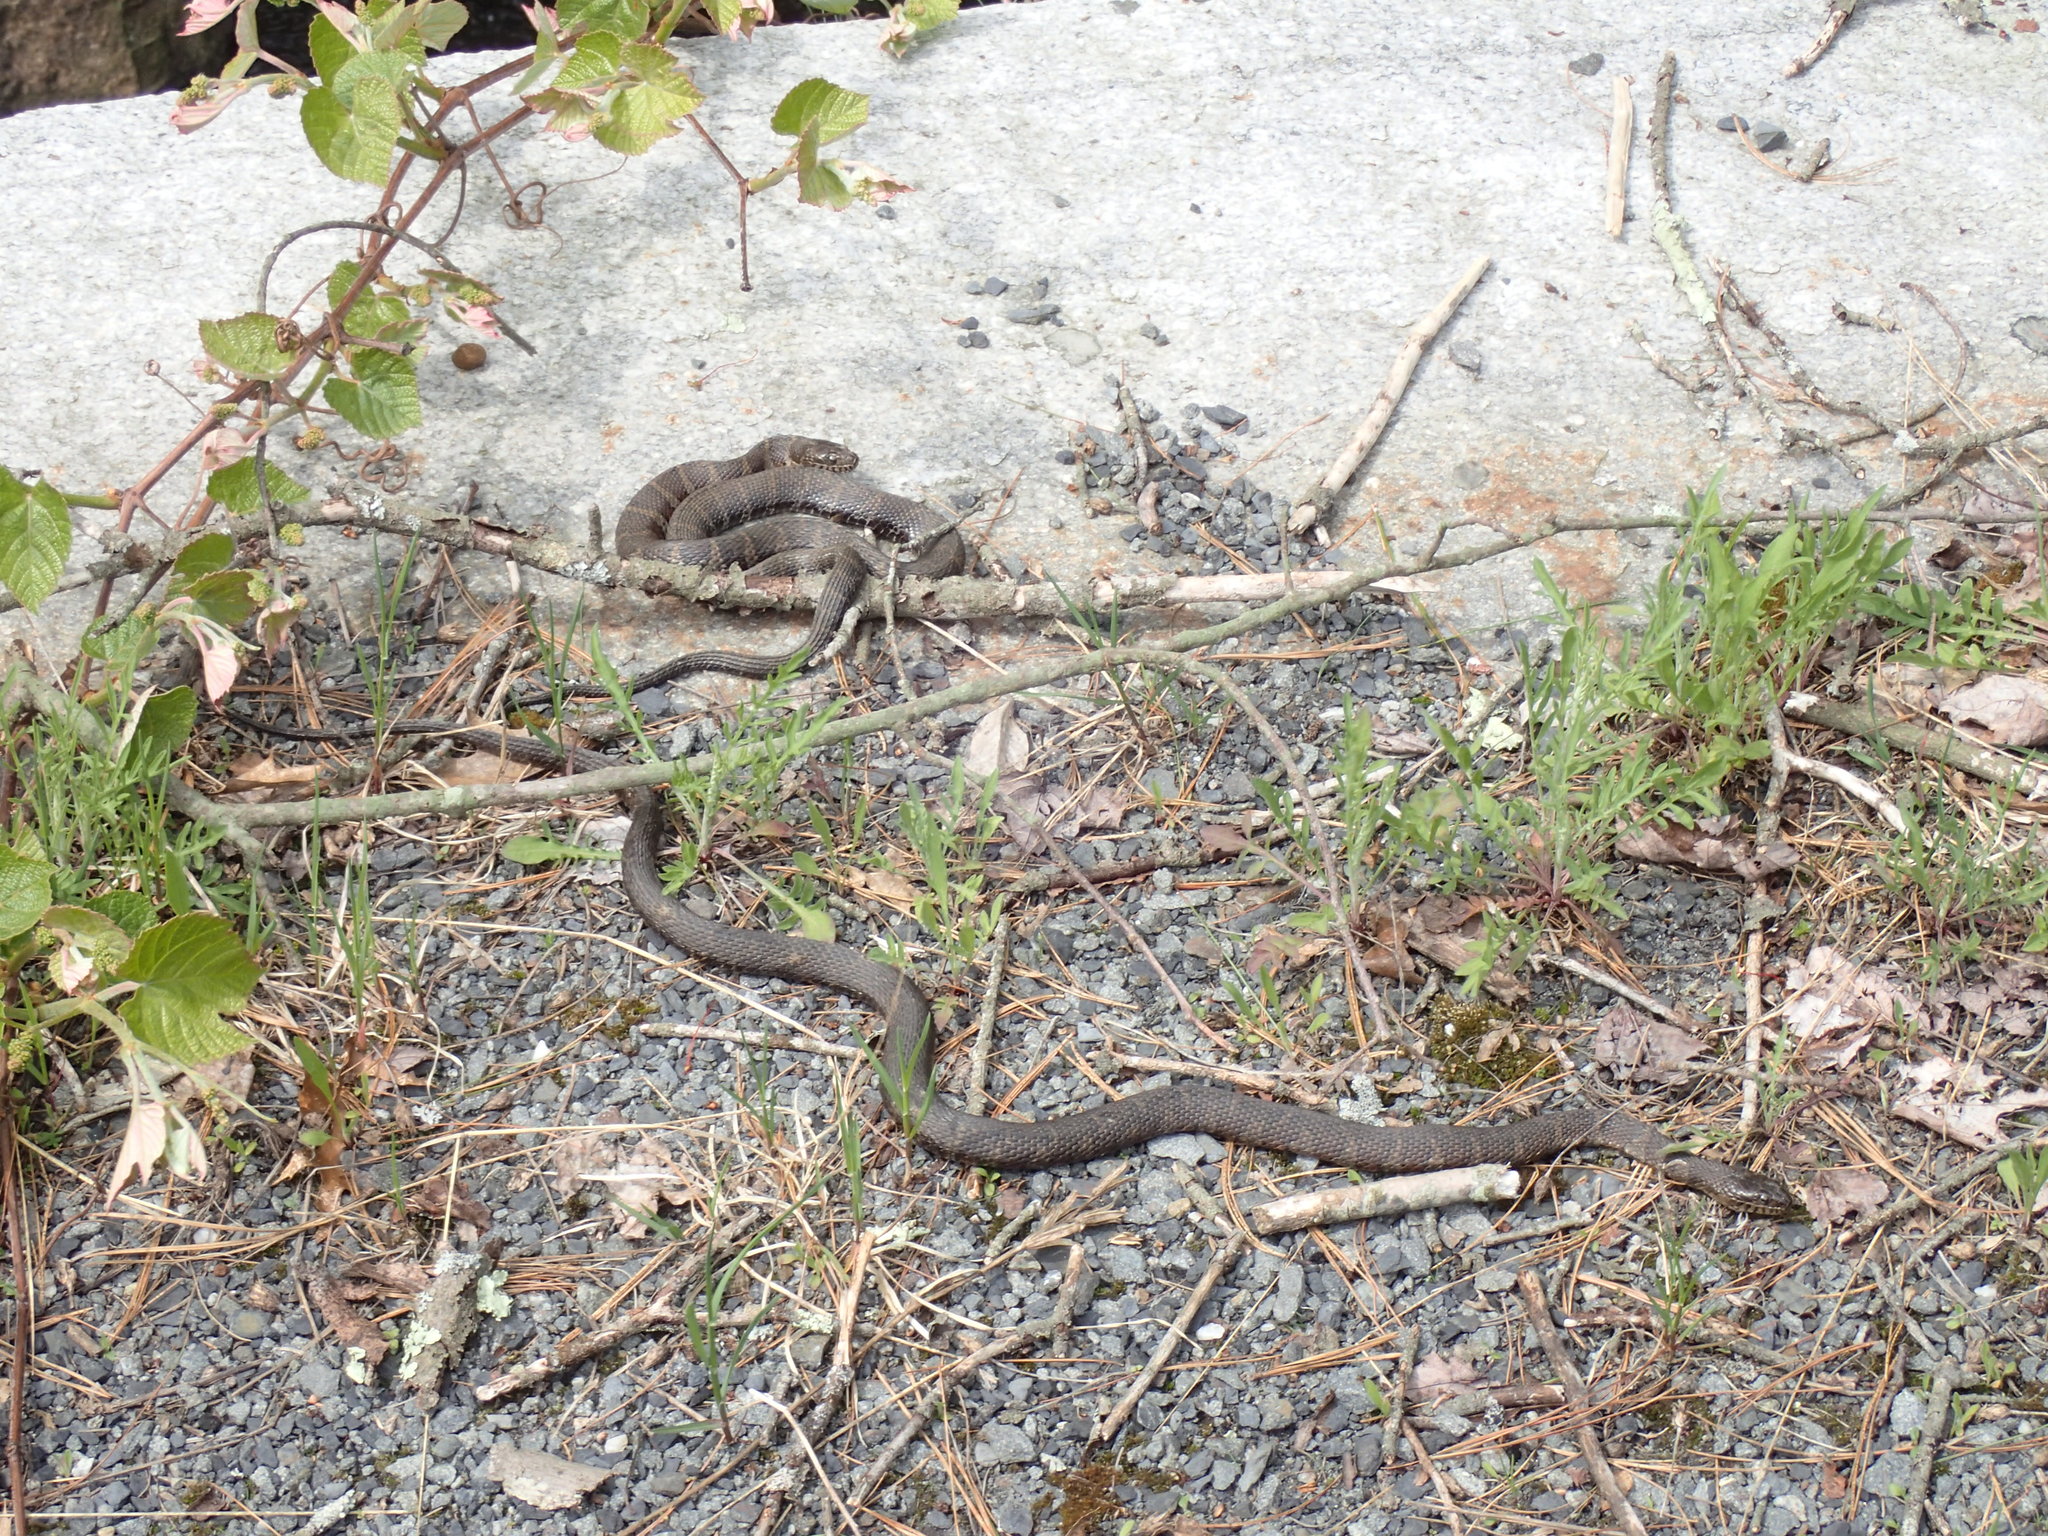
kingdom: Animalia
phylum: Chordata
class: Squamata
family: Colubridae
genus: Nerodia
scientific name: Nerodia sipedon
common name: Northern water snake
